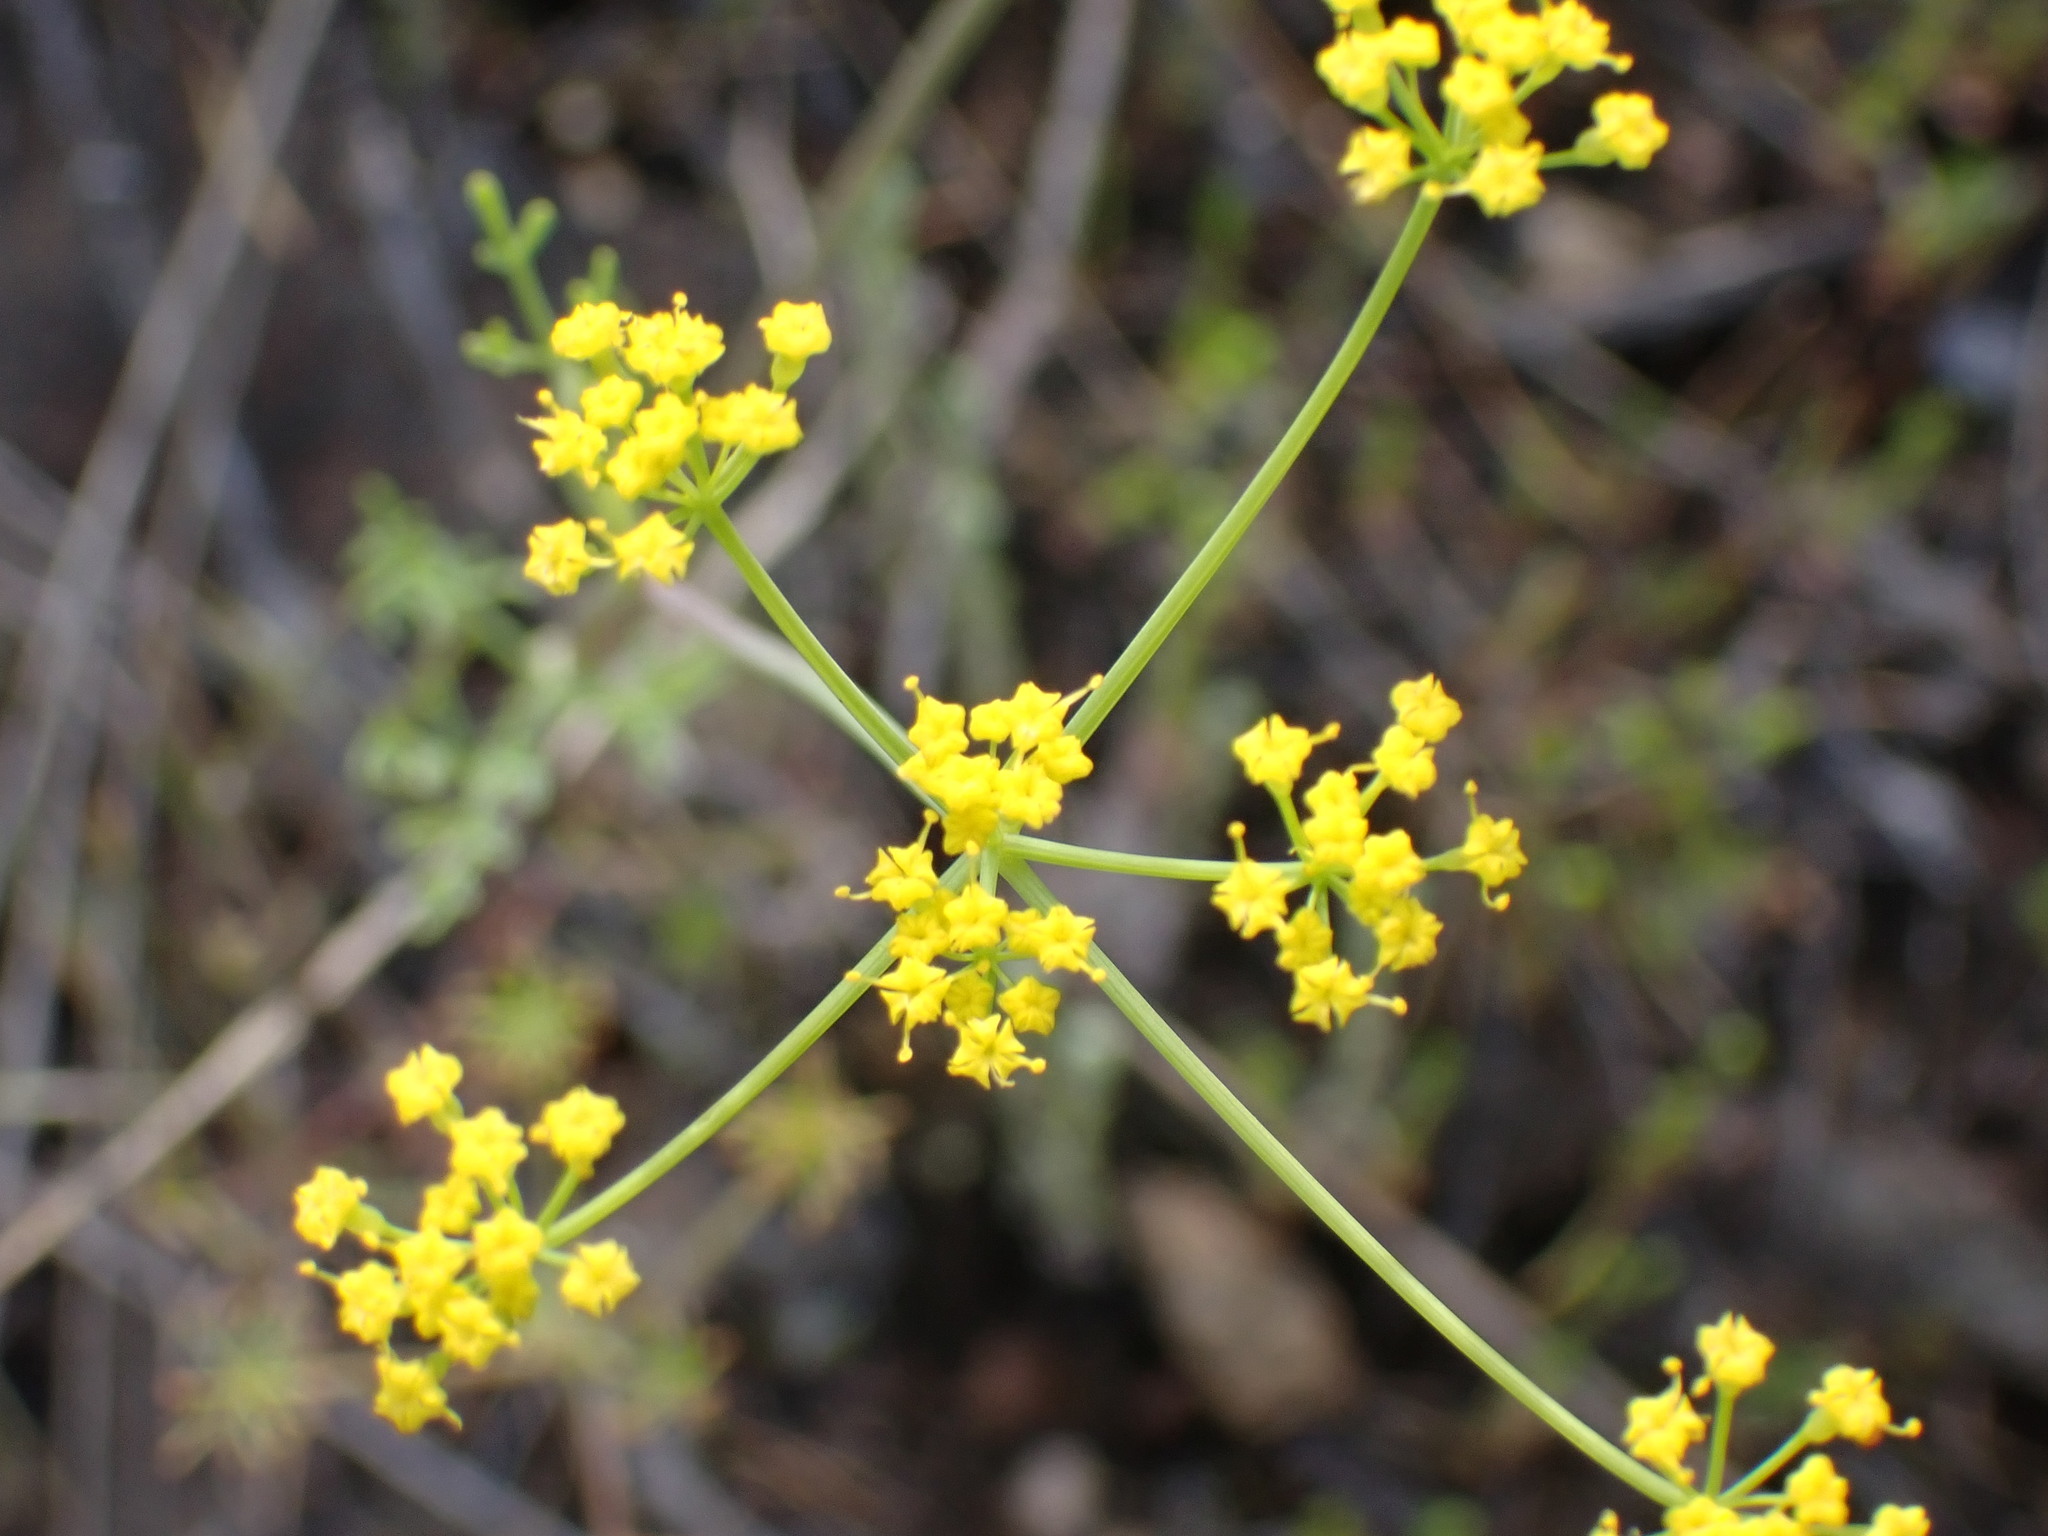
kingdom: Plantae
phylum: Tracheophyta
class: Magnoliopsida
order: Apiales
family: Apiaceae
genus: Lomatium
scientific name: Lomatium ambiguum
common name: Lacy lomatium
